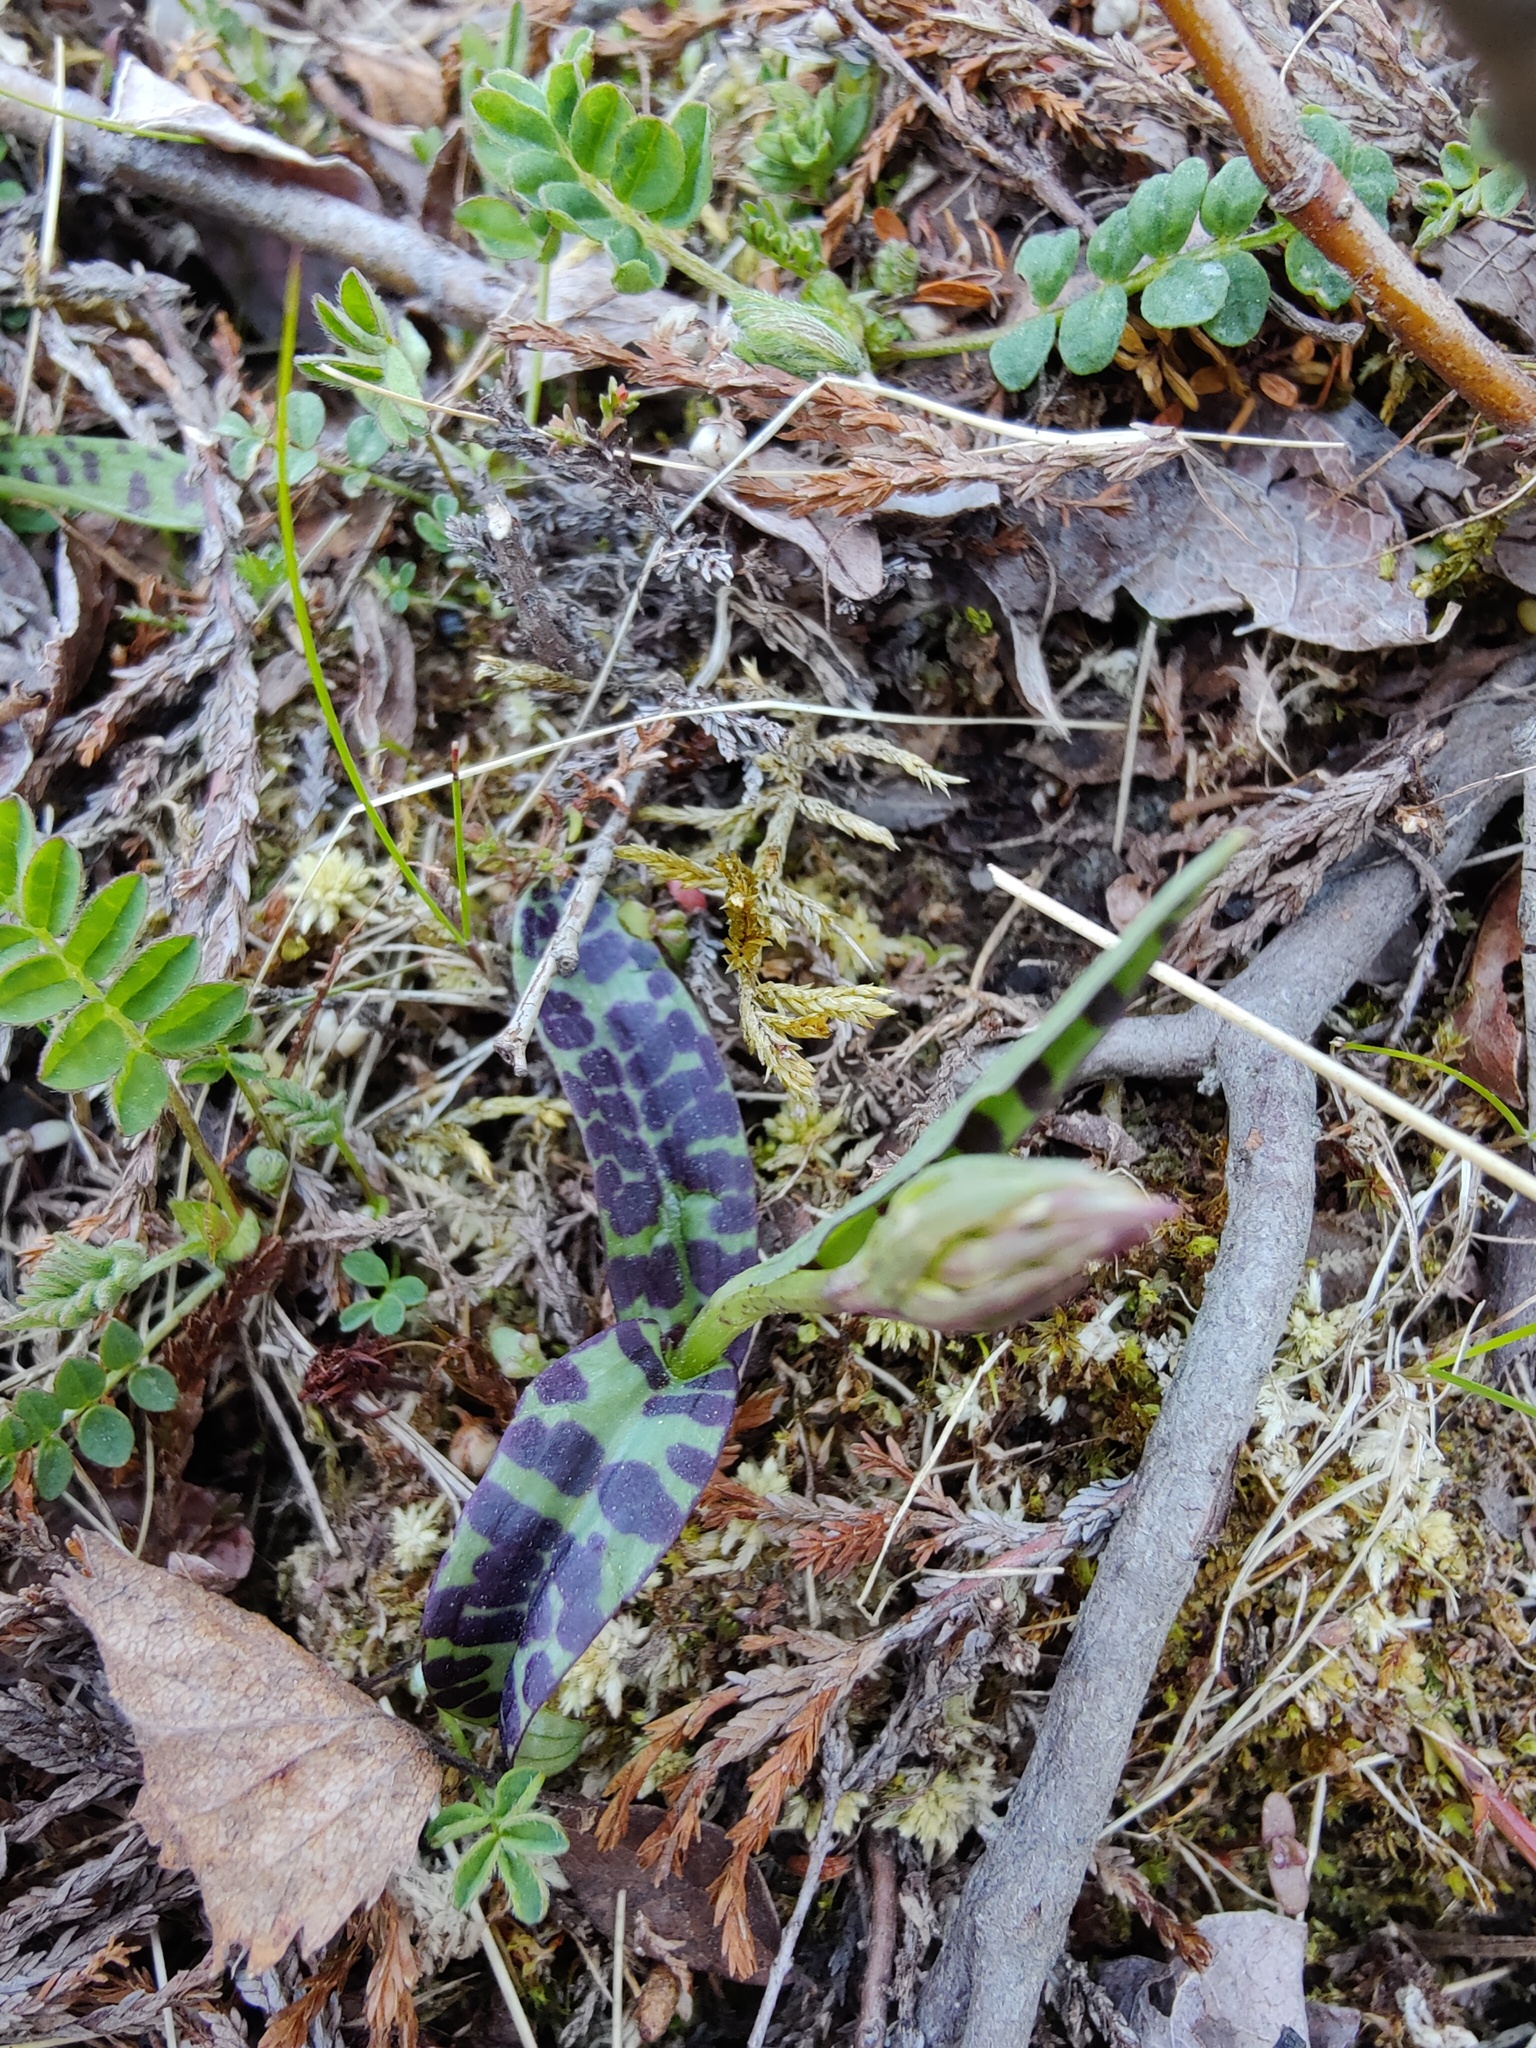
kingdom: Plantae
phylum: Tracheophyta
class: Liliopsida
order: Asparagales
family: Orchidaceae
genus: Dactylorhiza
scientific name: Dactylorhiza maculata
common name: Heath spotted-orchid
